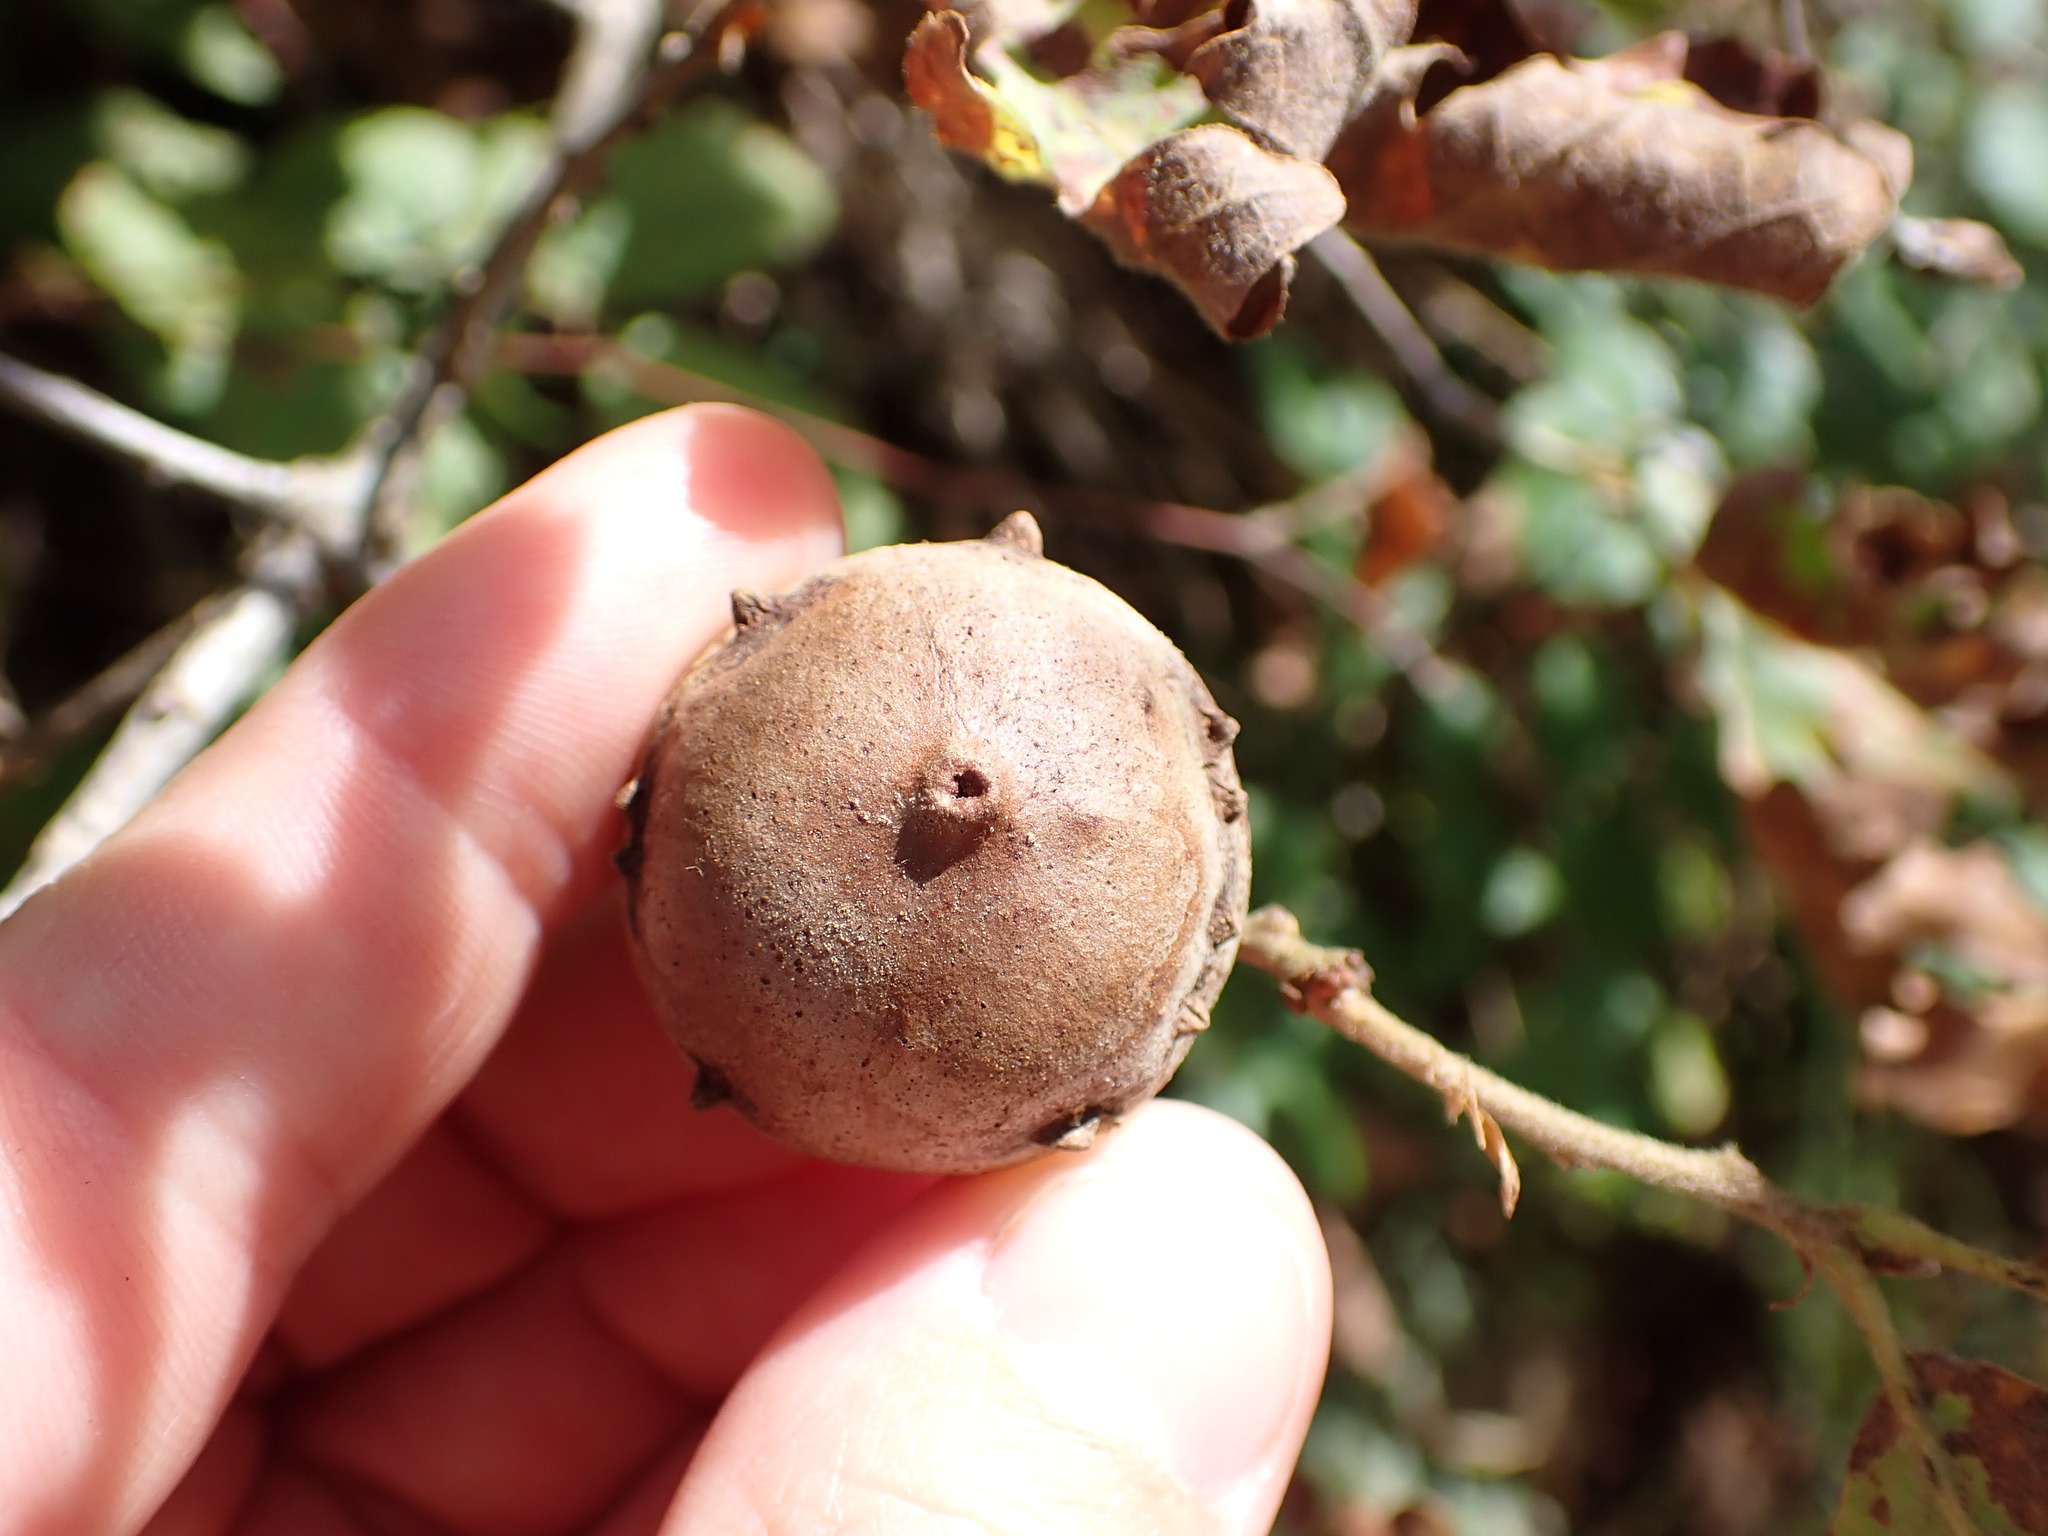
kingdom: Animalia
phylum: Arthropoda
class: Insecta
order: Hymenoptera
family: Cynipidae
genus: Andricus
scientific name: Andricus quercustozae
